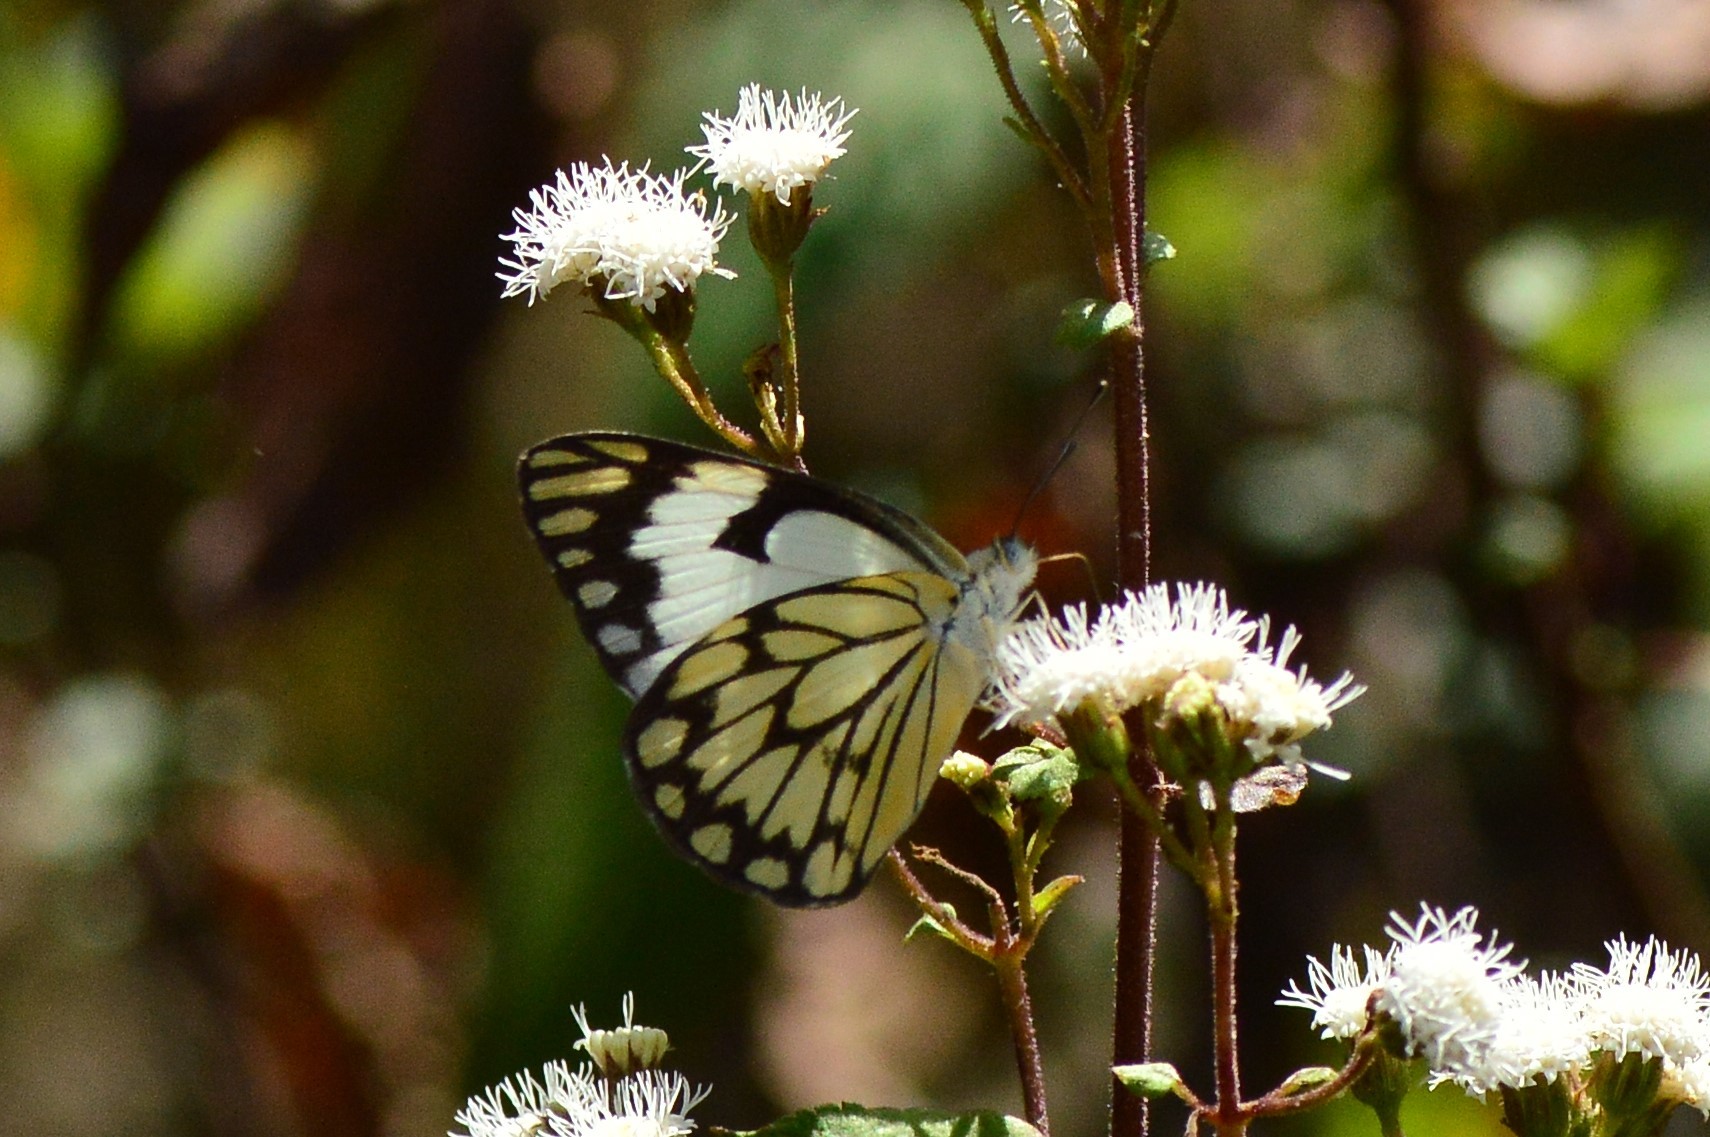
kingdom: Animalia
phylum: Arthropoda
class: Insecta
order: Lepidoptera
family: Pieridae
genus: Belenois
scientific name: Belenois aurota
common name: Brown-veined white
